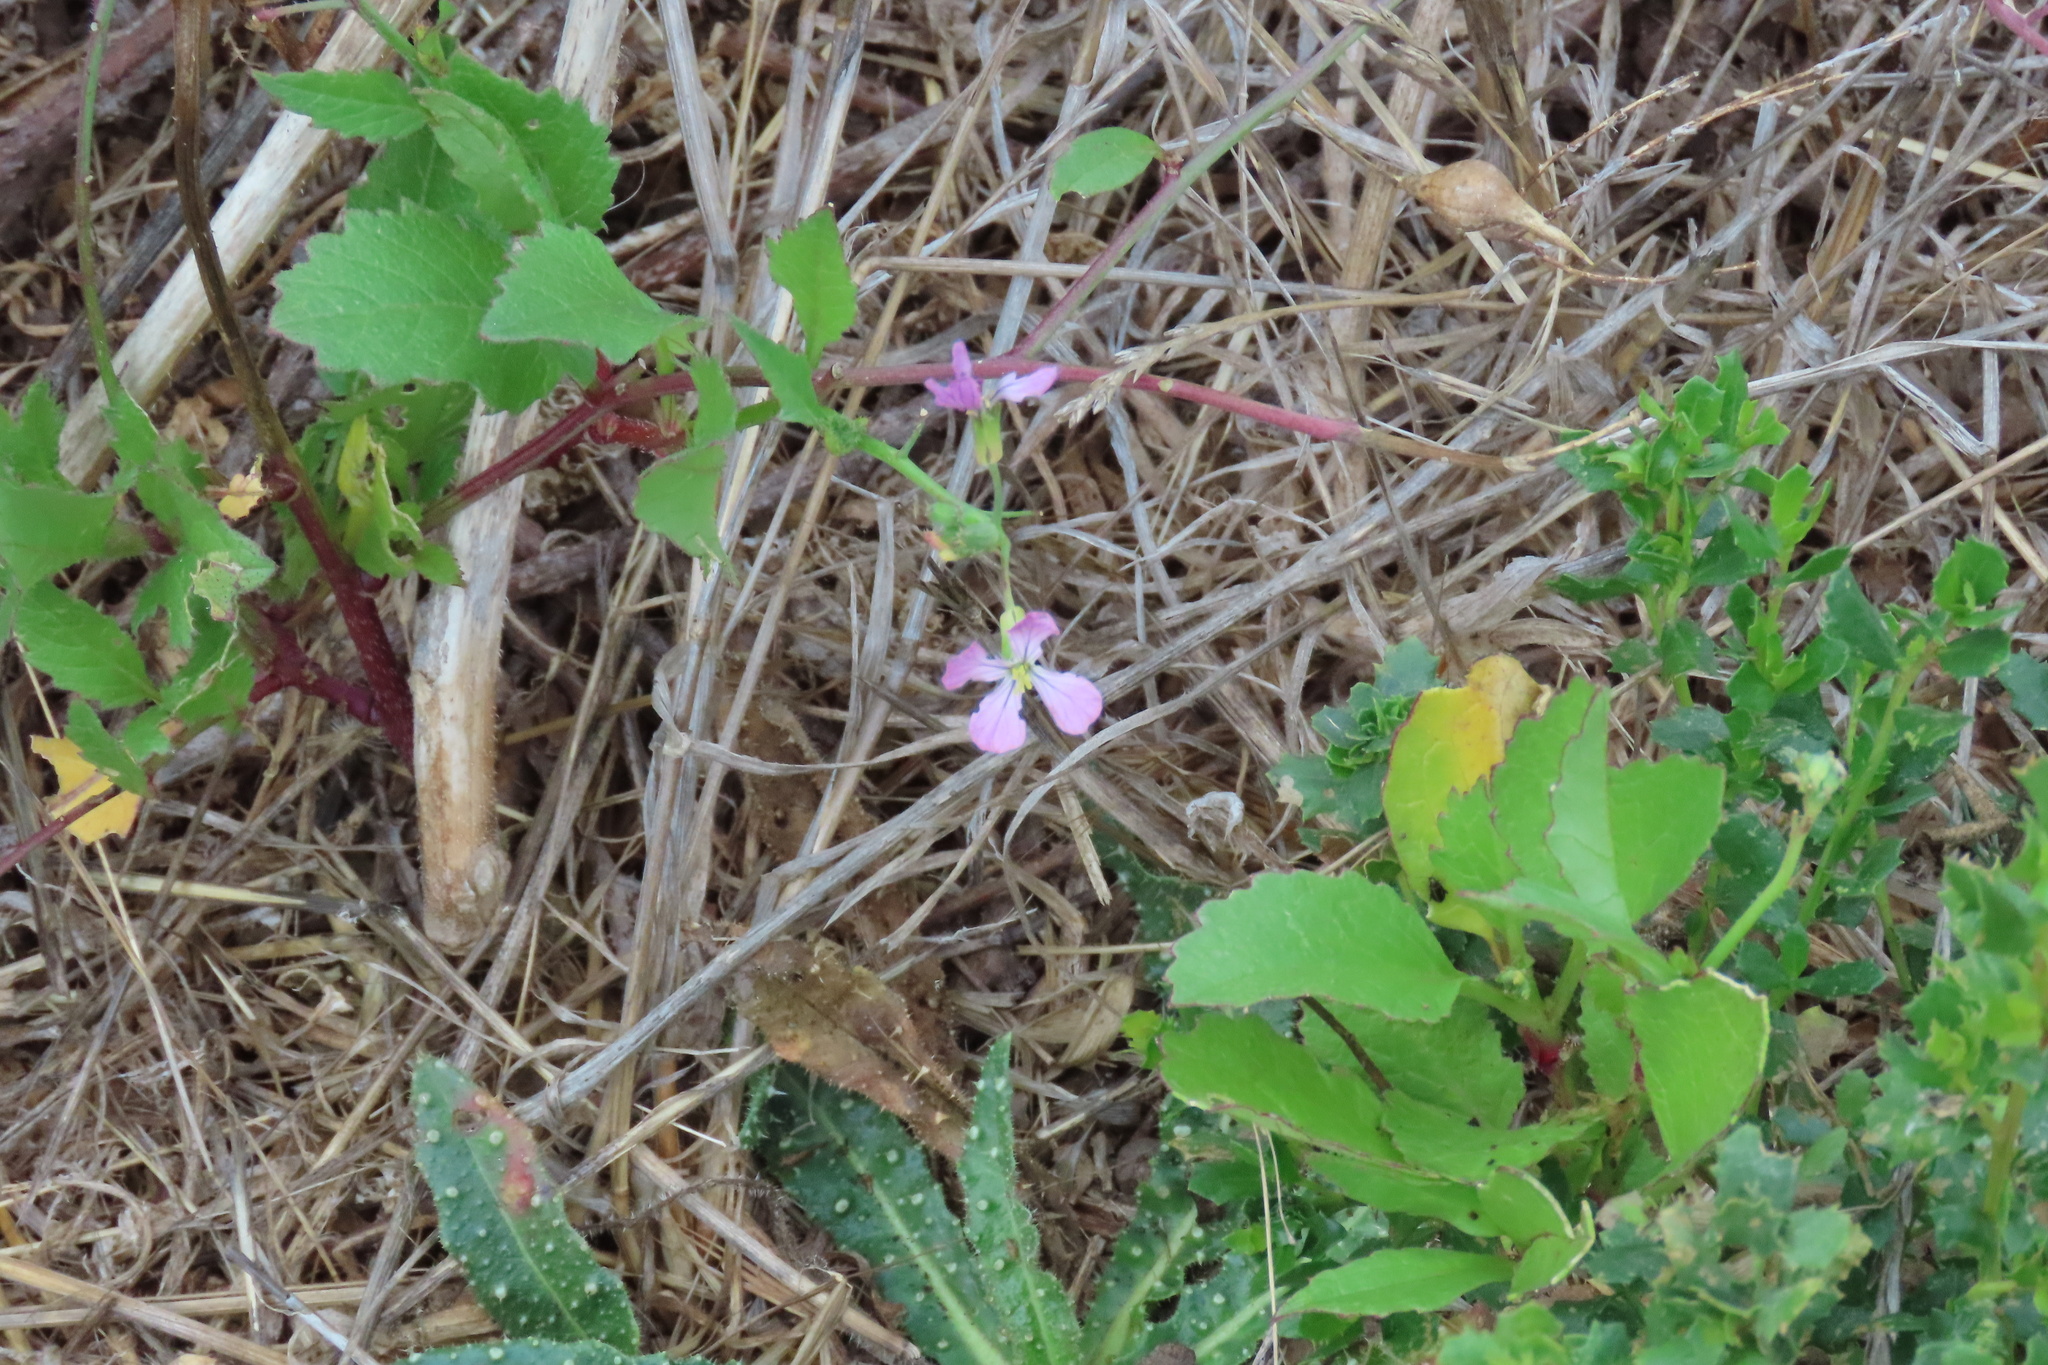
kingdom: Plantae
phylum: Tracheophyta
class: Magnoliopsida
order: Brassicales
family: Brassicaceae
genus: Raphanus
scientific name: Raphanus sativus
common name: Cultivated radish
